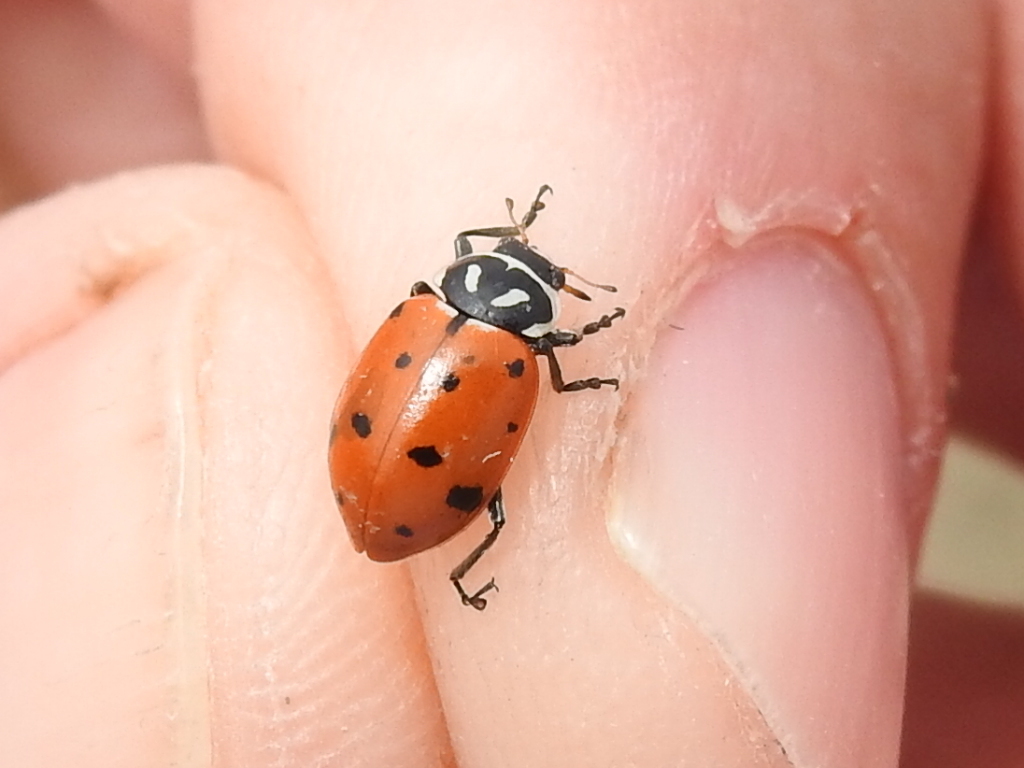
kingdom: Animalia
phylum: Arthropoda
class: Insecta
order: Coleoptera
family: Coccinellidae
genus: Hippodamia
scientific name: Hippodamia convergens
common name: Convergent lady beetle
